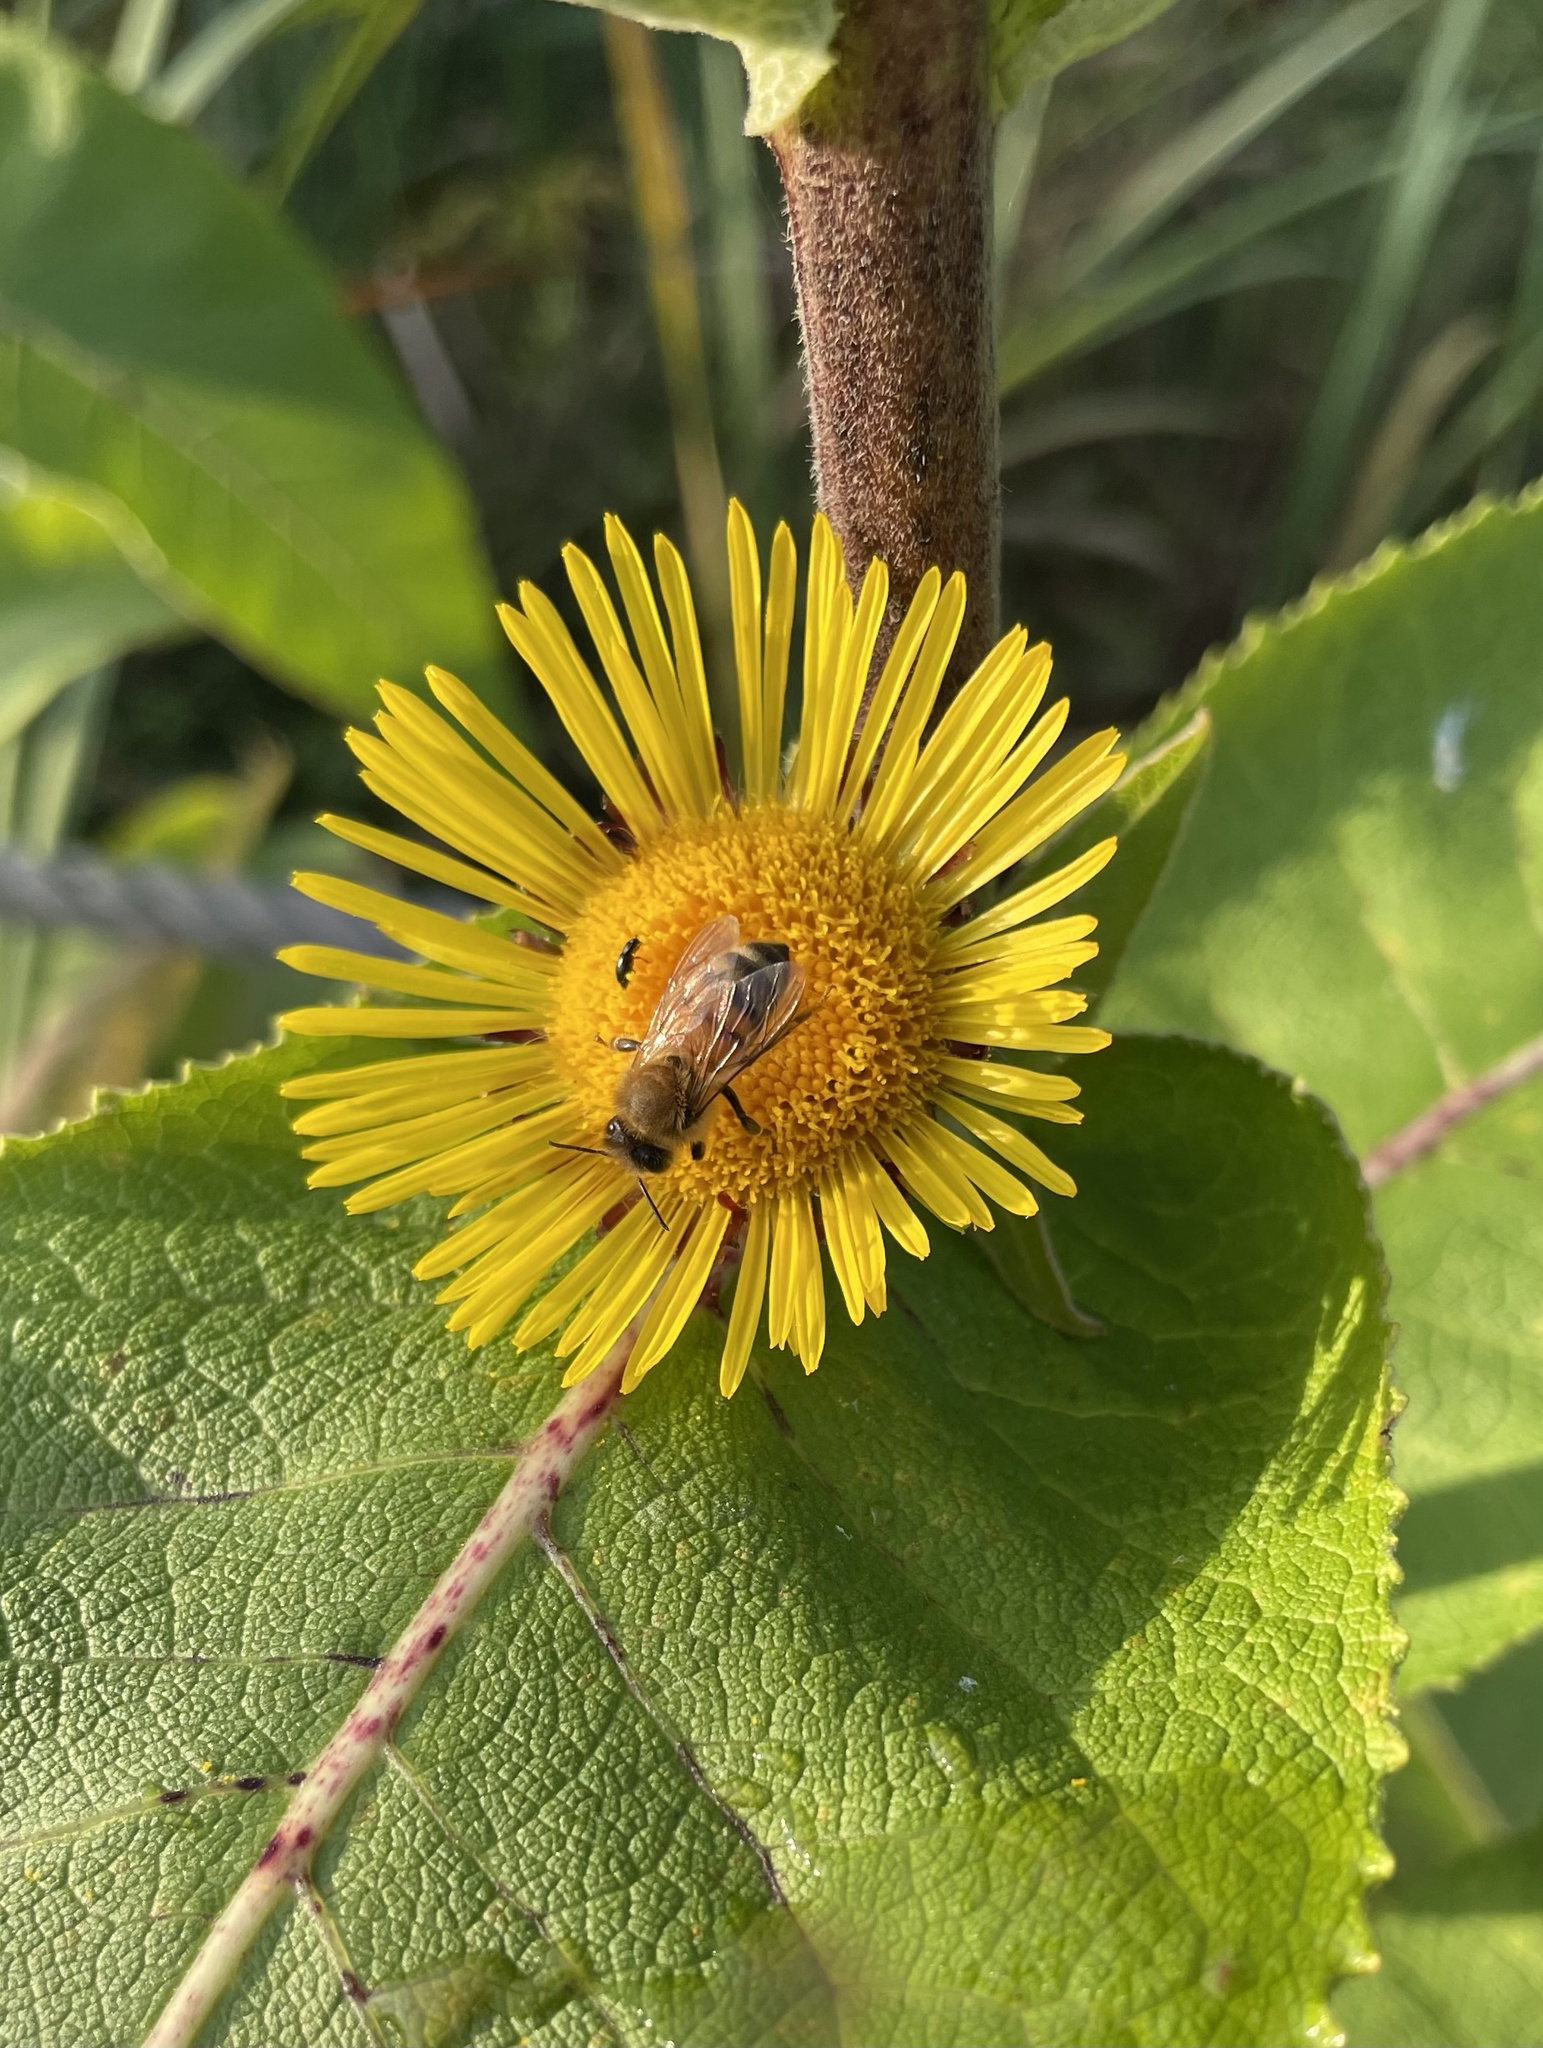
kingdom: Animalia
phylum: Arthropoda
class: Insecta
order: Hymenoptera
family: Apidae
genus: Apis
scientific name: Apis mellifera
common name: Honey bee
